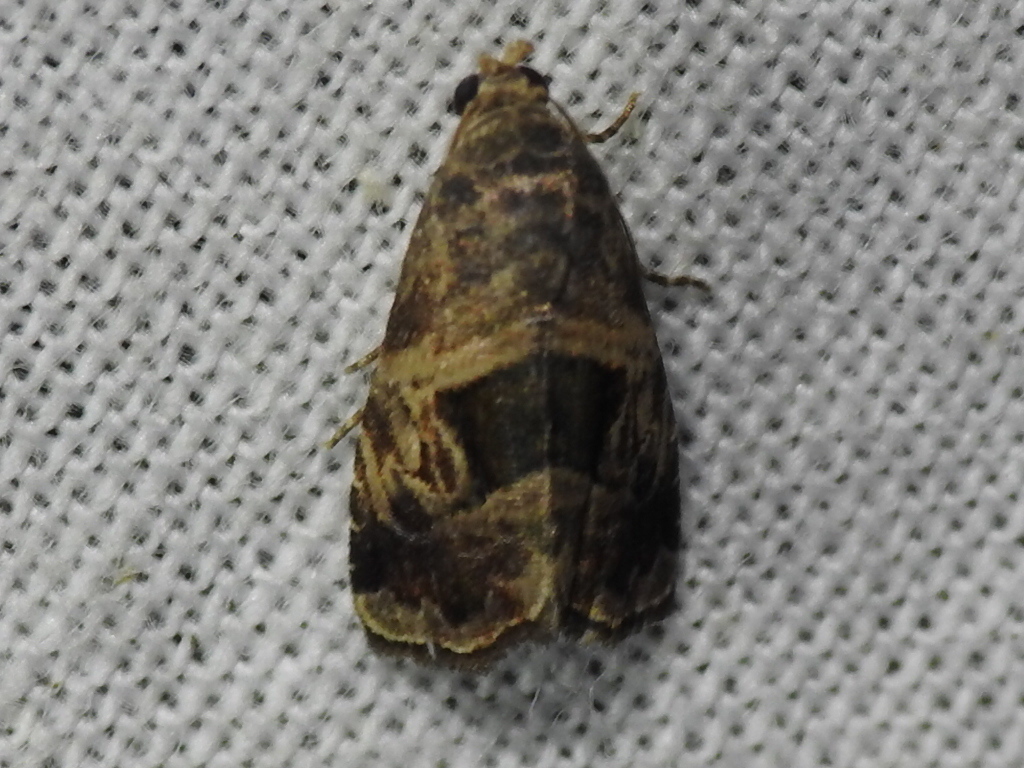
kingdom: Animalia
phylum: Arthropoda
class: Insecta
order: Lepidoptera
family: Noctuidae
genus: Tripudia
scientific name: Tripudia quadrifera
